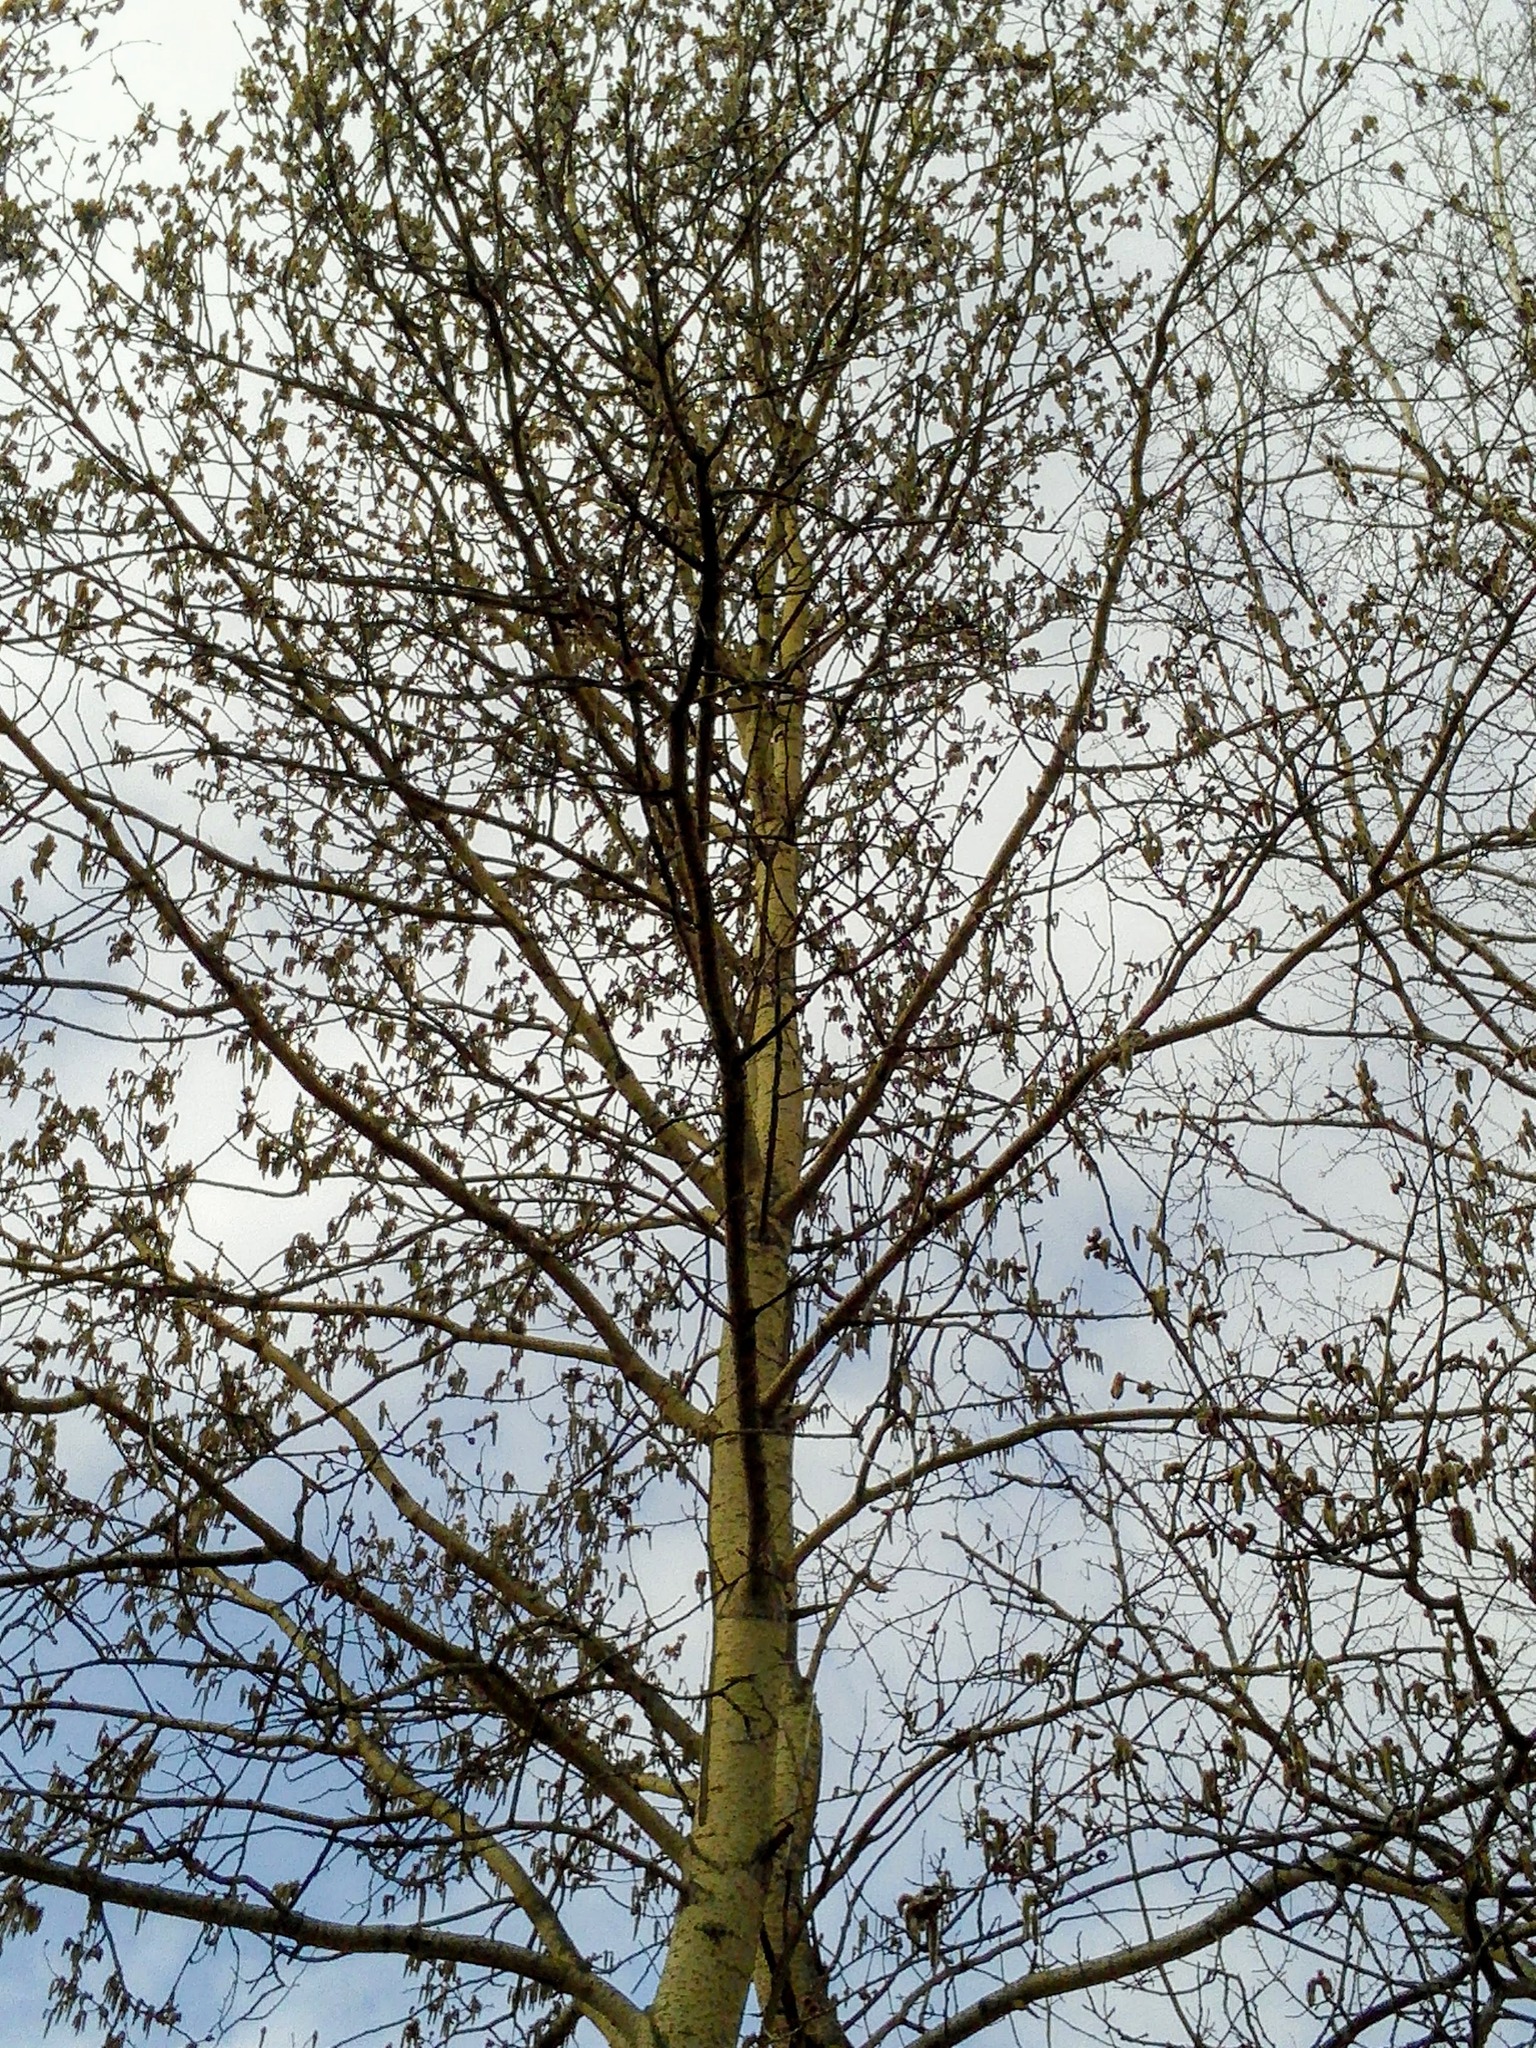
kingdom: Plantae
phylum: Tracheophyta
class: Magnoliopsida
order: Malpighiales
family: Salicaceae
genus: Populus
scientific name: Populus tremula
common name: European aspen
